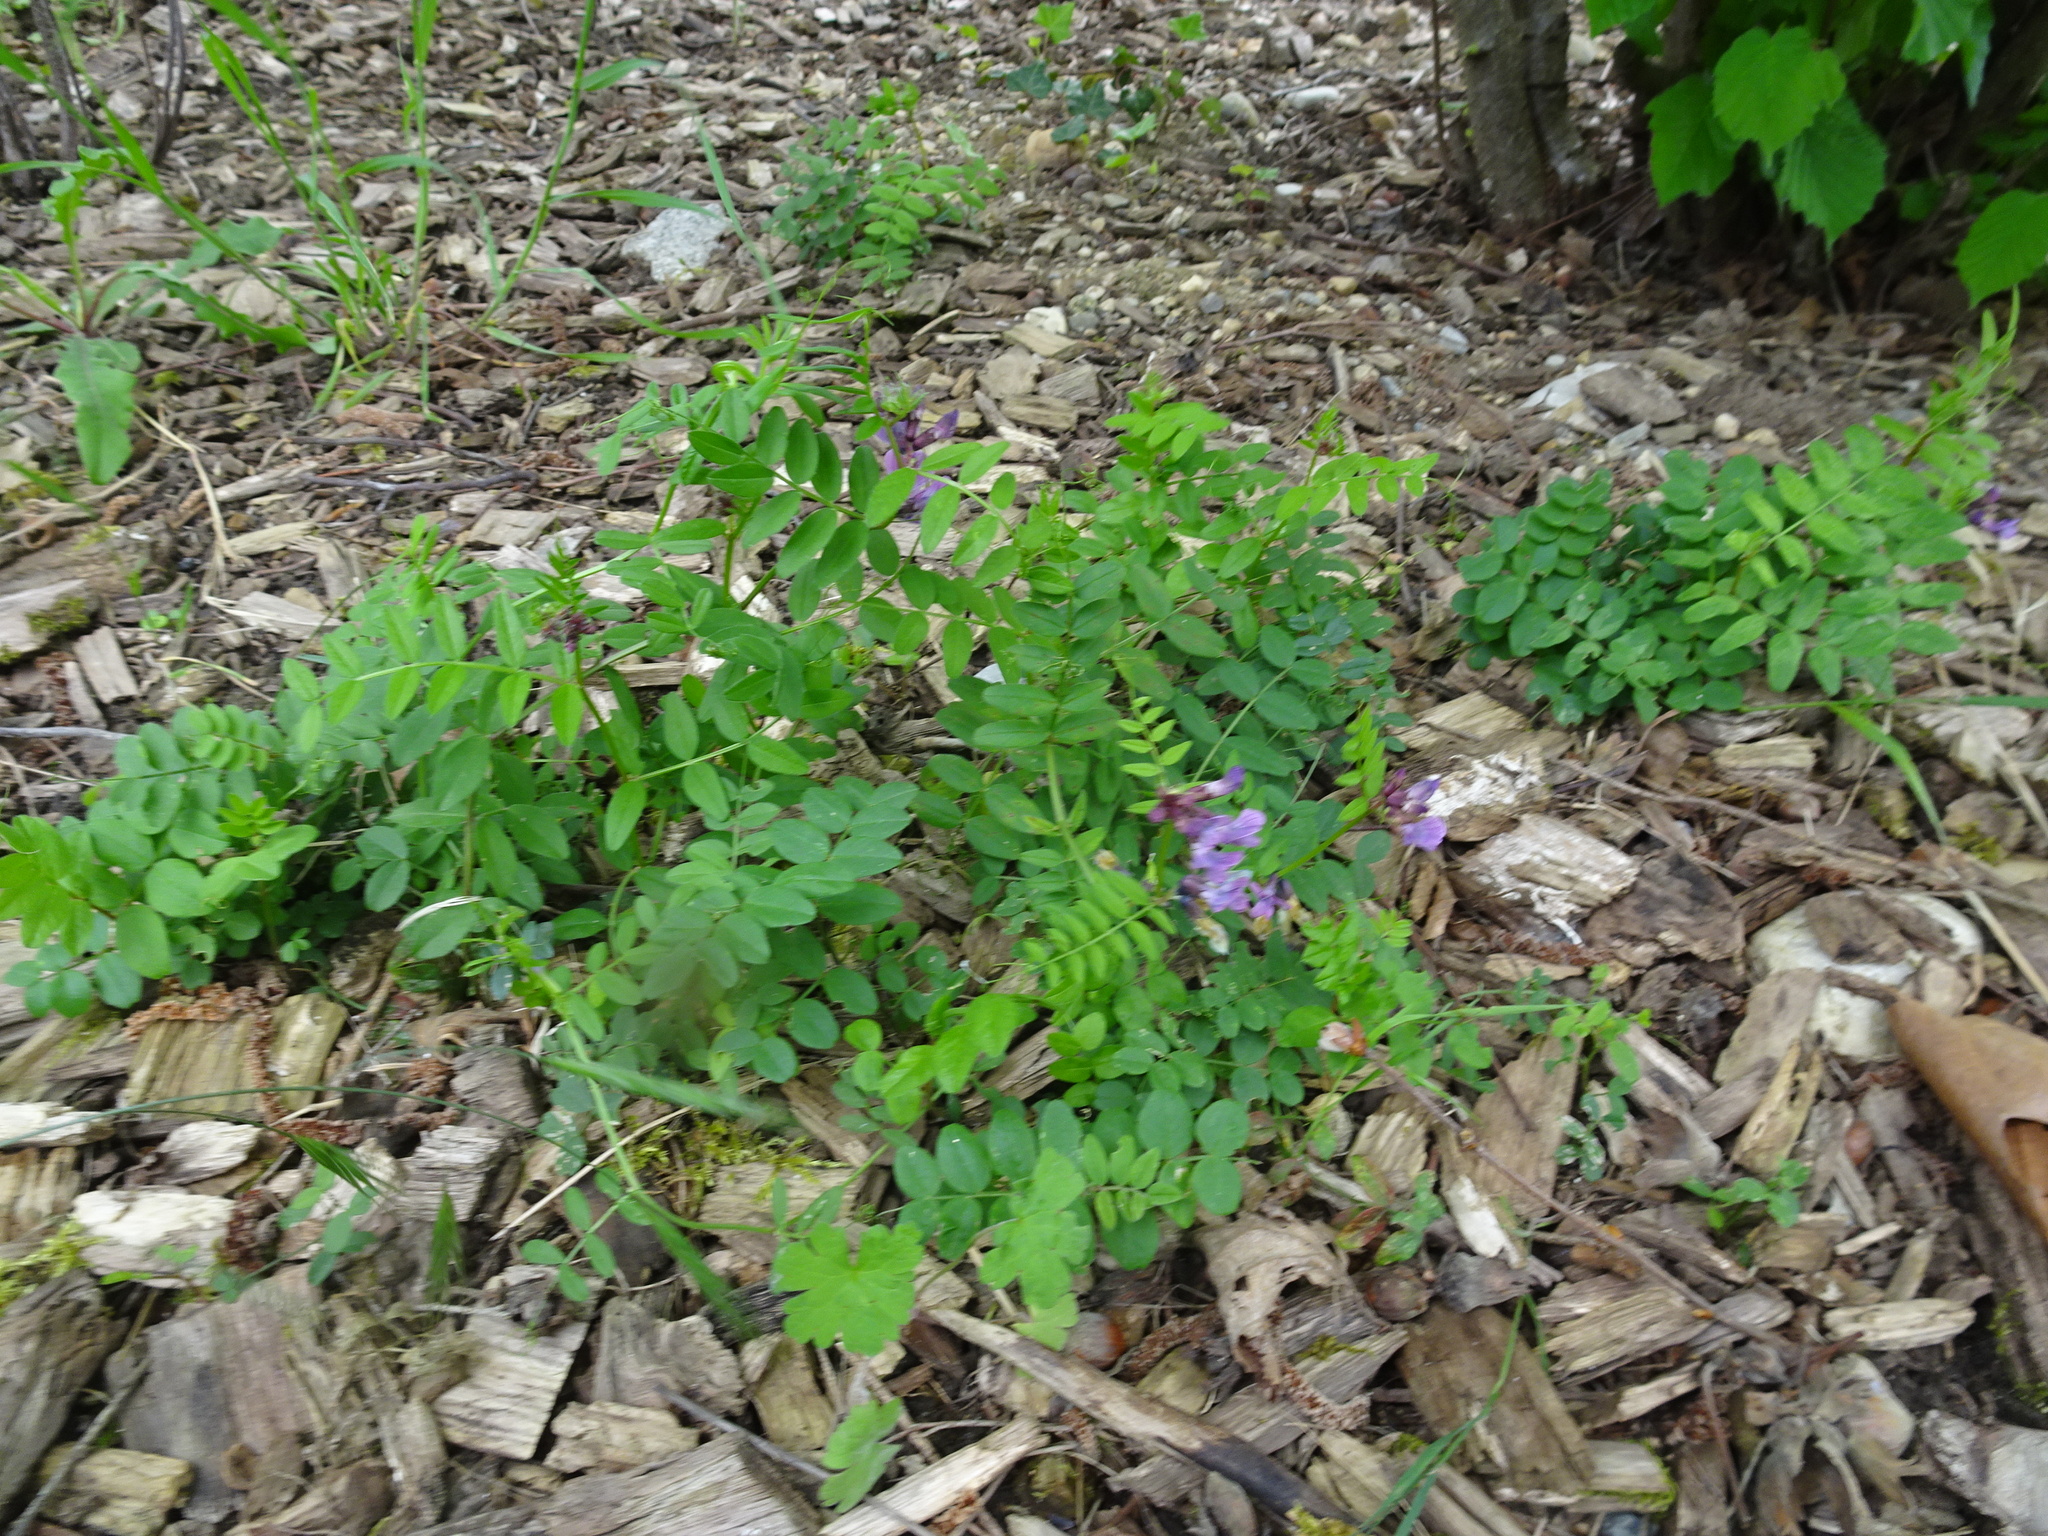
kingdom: Plantae
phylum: Tracheophyta
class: Magnoliopsida
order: Fabales
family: Fabaceae
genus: Vicia
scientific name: Vicia sepium
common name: Bush vetch
